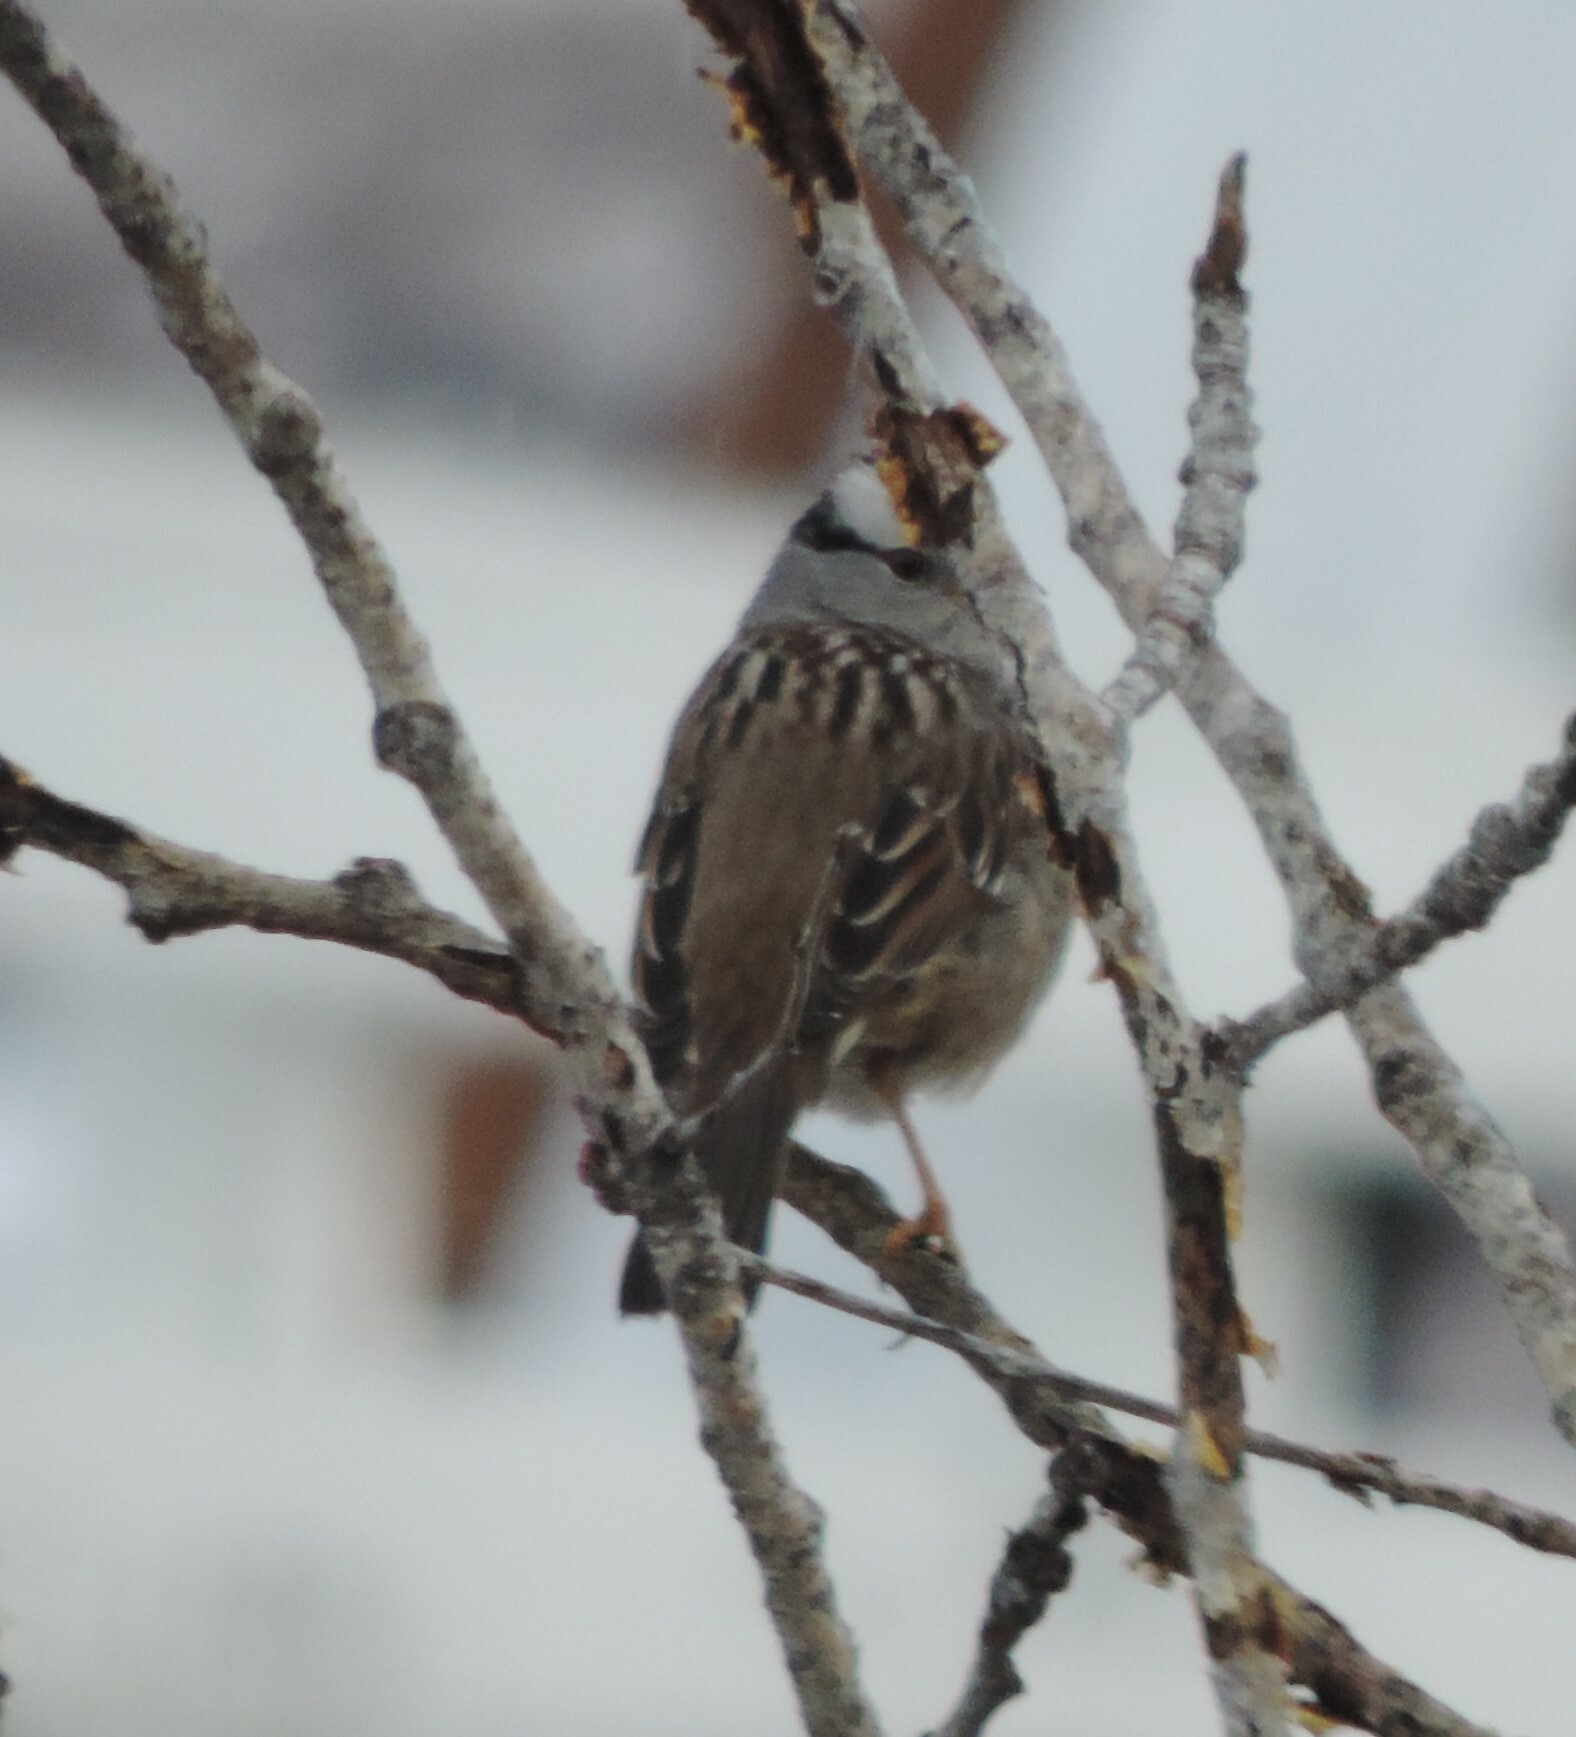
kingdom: Animalia
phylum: Chordata
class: Aves
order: Passeriformes
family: Passerellidae
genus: Zonotrichia
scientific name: Zonotrichia leucophrys
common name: White-crowned sparrow
